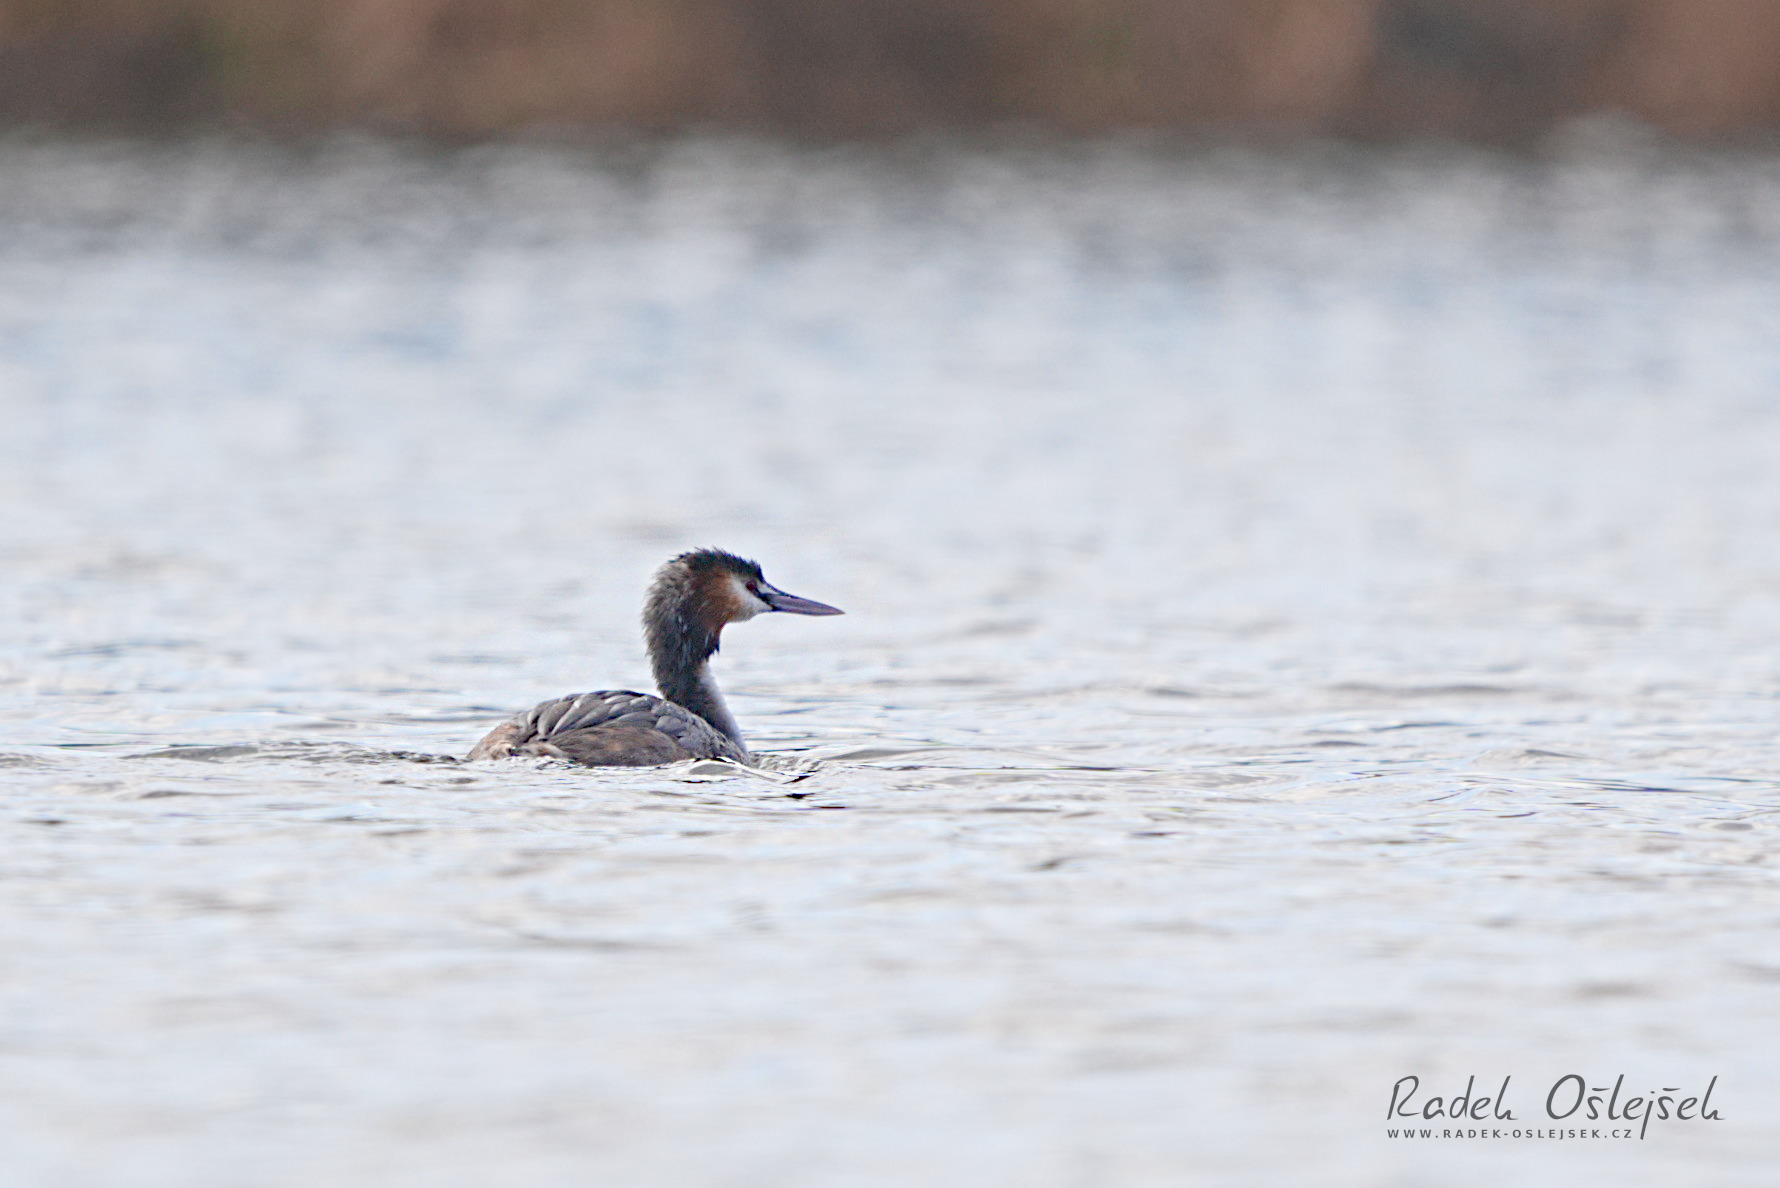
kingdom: Animalia
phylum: Chordata
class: Aves
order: Podicipediformes
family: Podicipedidae
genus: Podiceps
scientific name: Podiceps cristatus
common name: Great crested grebe
